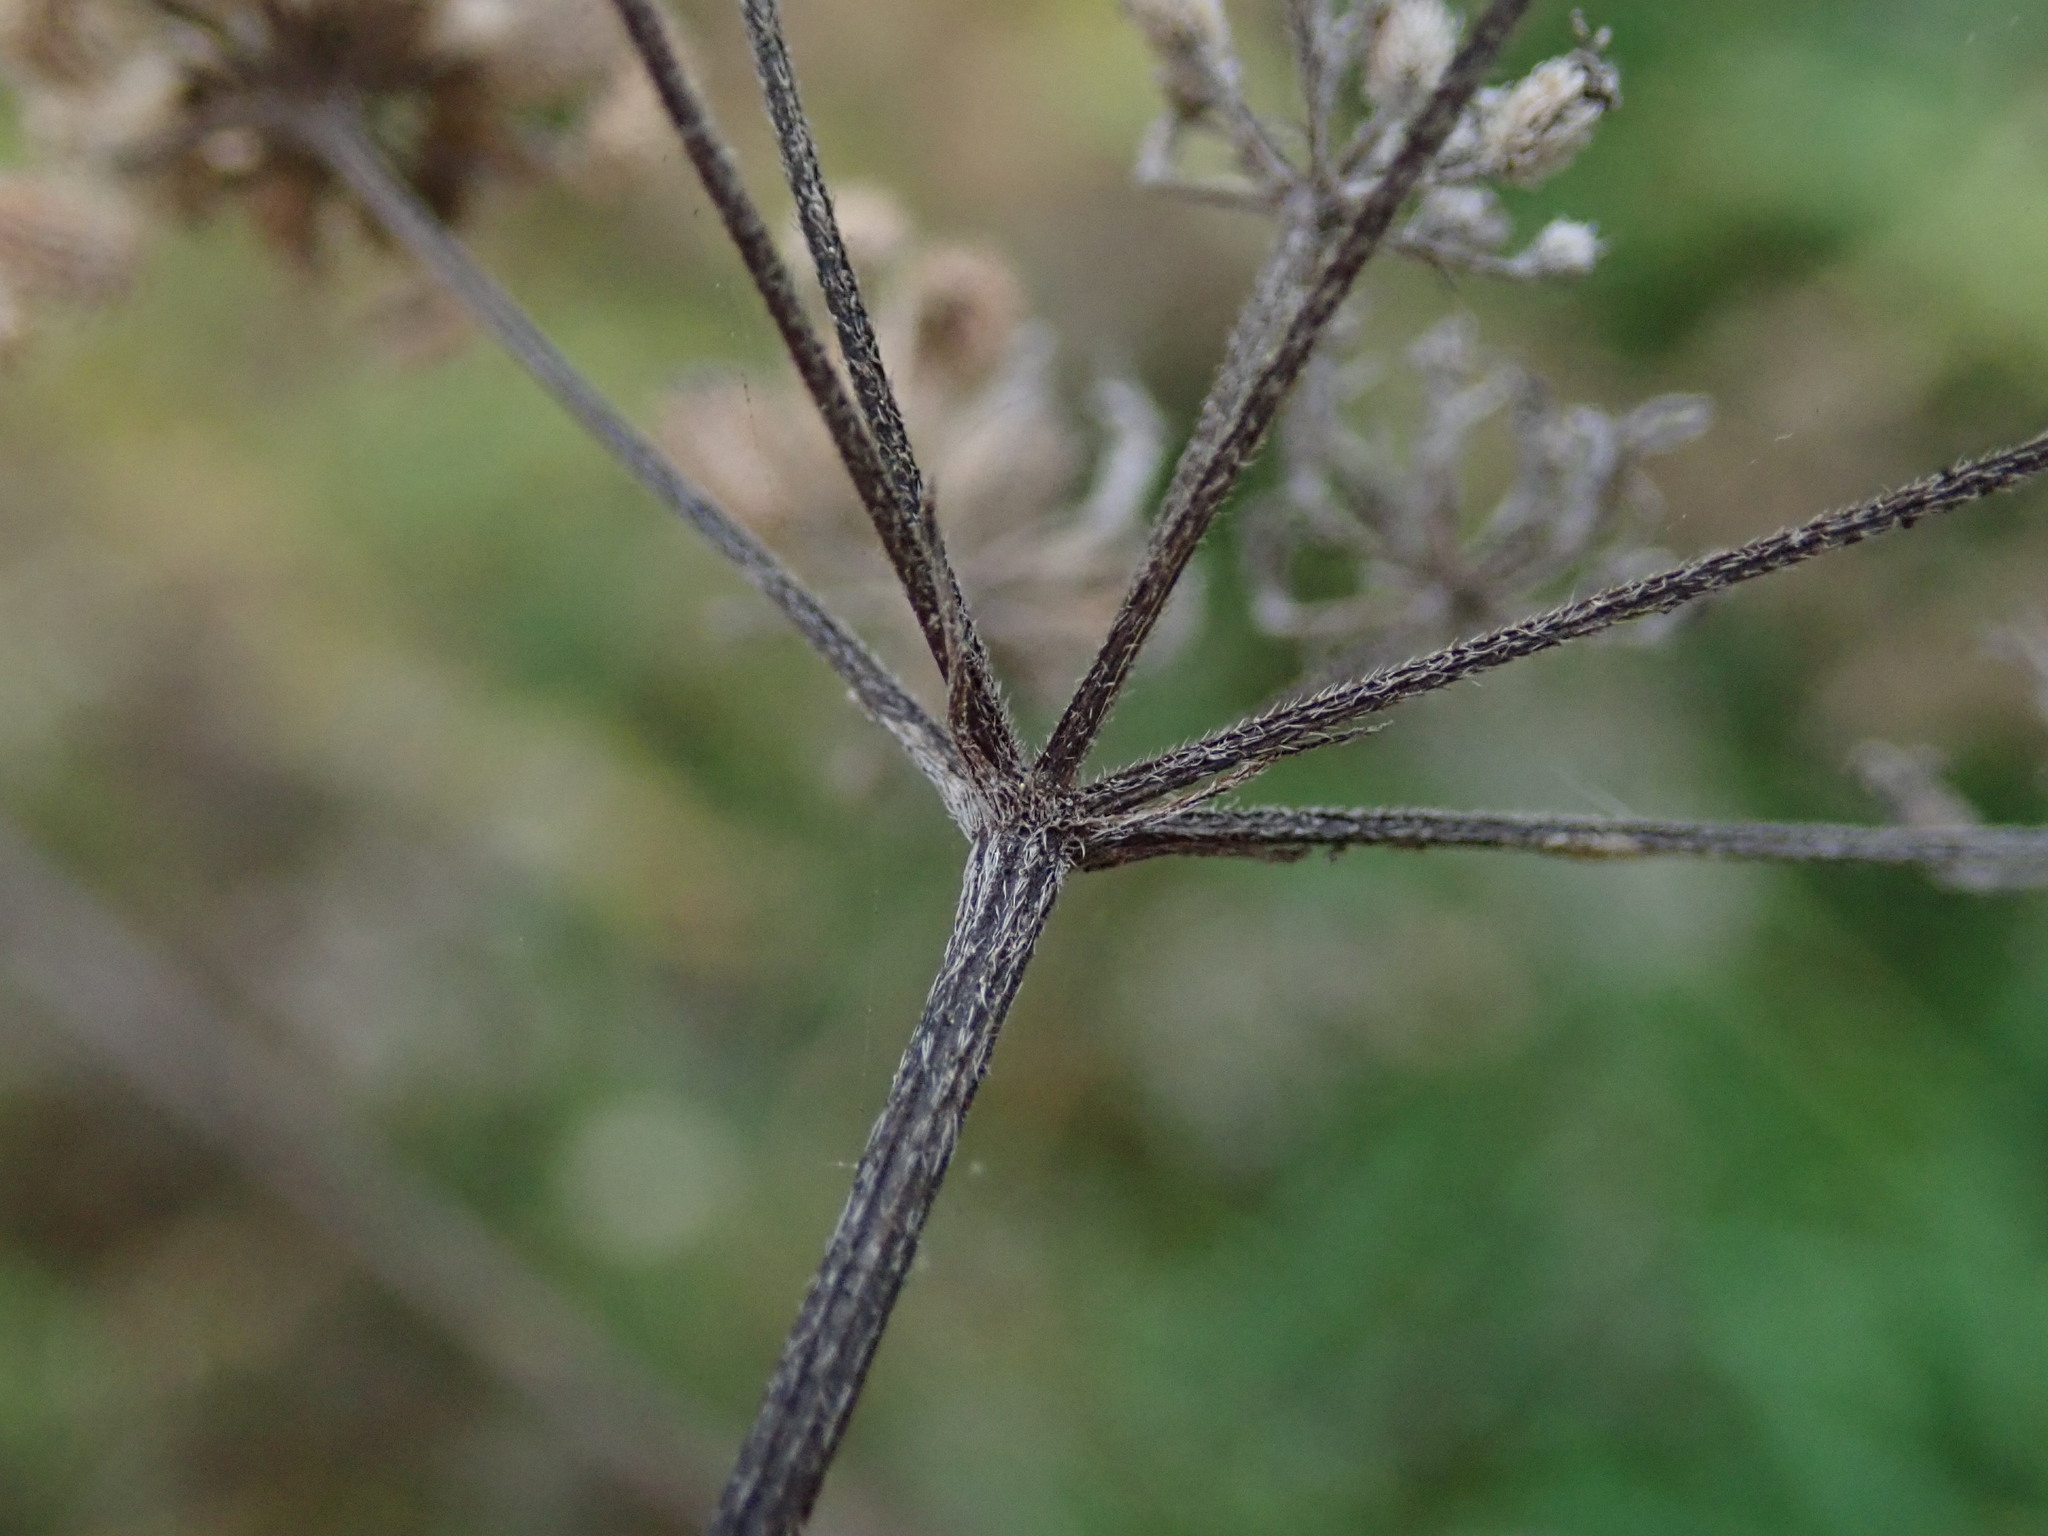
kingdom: Plantae
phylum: Tracheophyta
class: Magnoliopsida
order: Apiales
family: Apiaceae
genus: Torilis
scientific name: Torilis japonica
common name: Upright hedge-parsley
